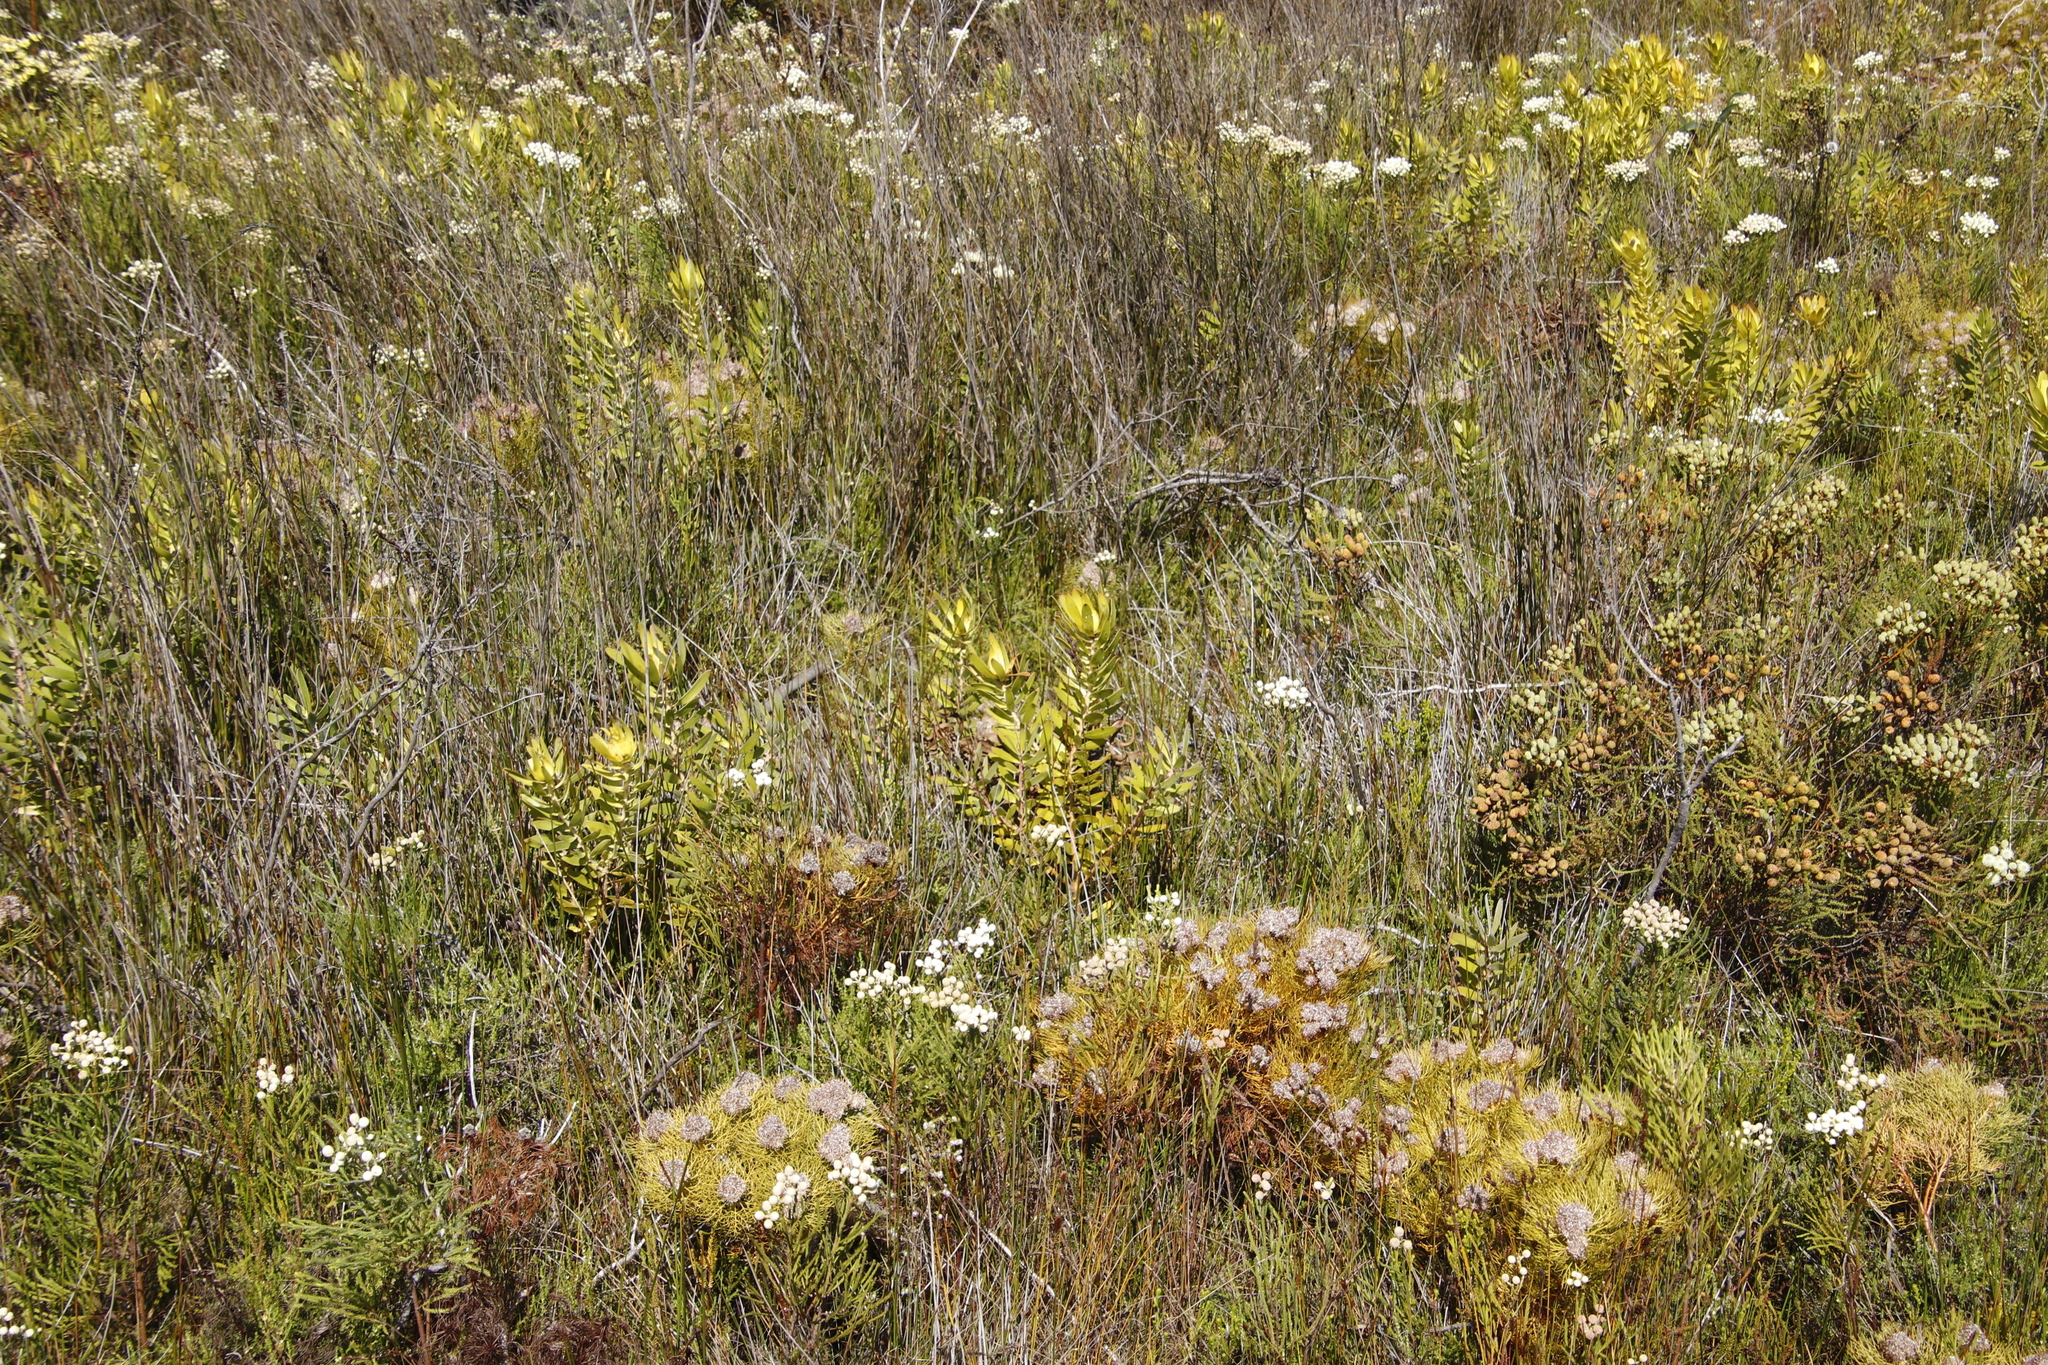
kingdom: Plantae
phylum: Tracheophyta
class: Magnoliopsida
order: Proteales
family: Proteaceae
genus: Leucadendron
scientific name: Leucadendron laureolum
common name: Golden sunshinebush
